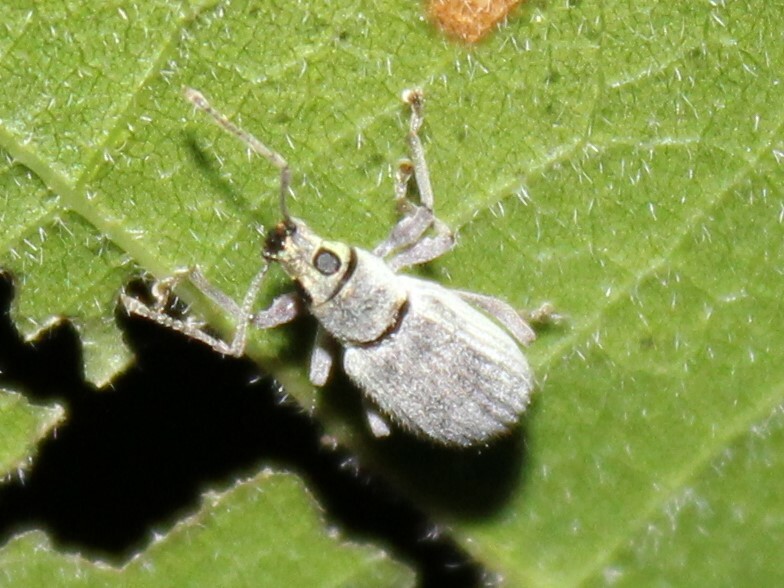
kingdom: Animalia
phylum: Arthropoda
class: Insecta
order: Coleoptera
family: Curculionidae
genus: Cyrtepistomus
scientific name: Cyrtepistomus castaneus
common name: Weevil
